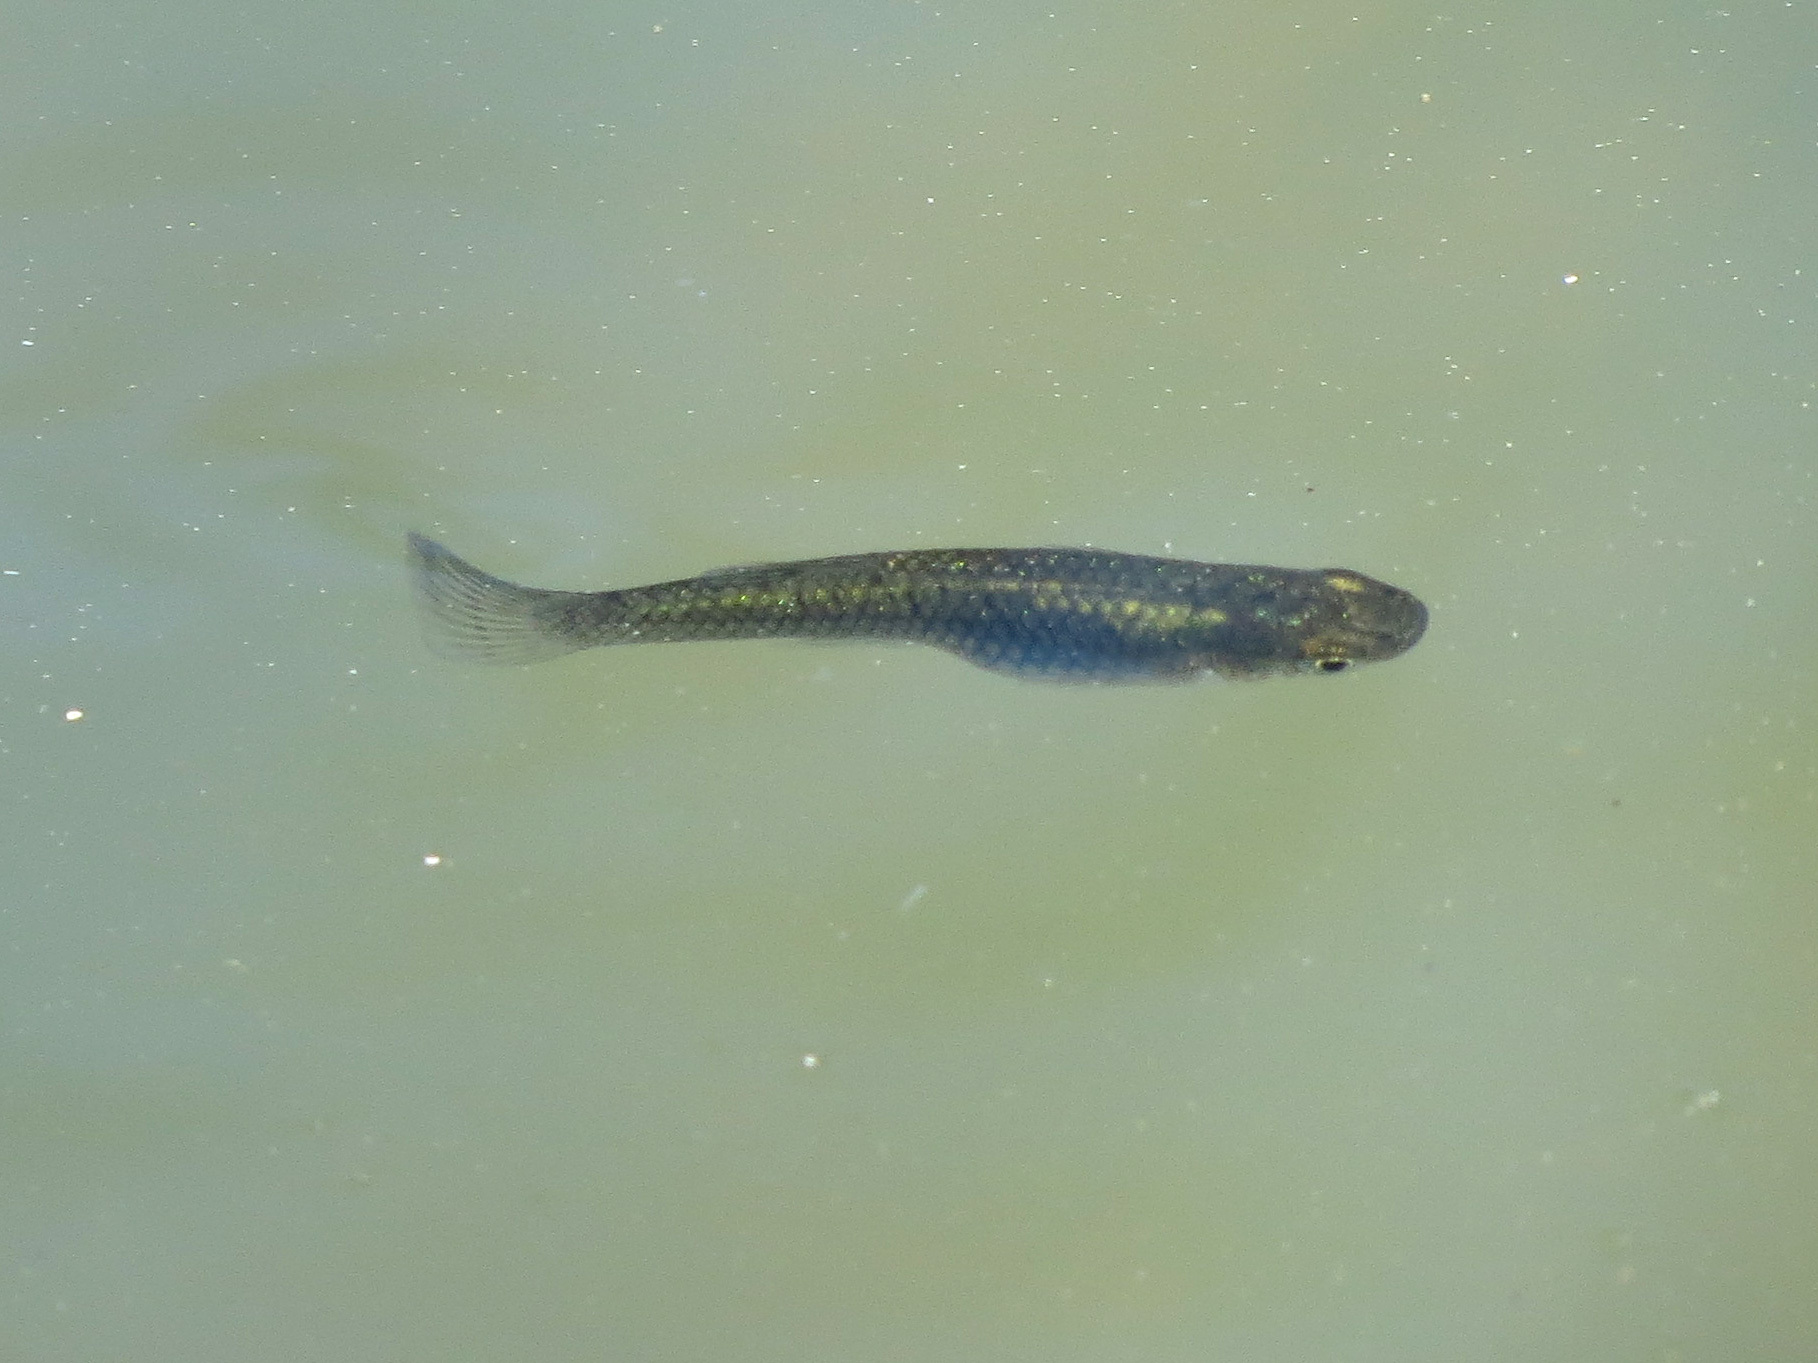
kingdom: Animalia
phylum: Chordata
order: Cyprinodontiformes
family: Poeciliidae
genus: Gambusia
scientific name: Gambusia holbrooki
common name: Eastern mosquitofish
